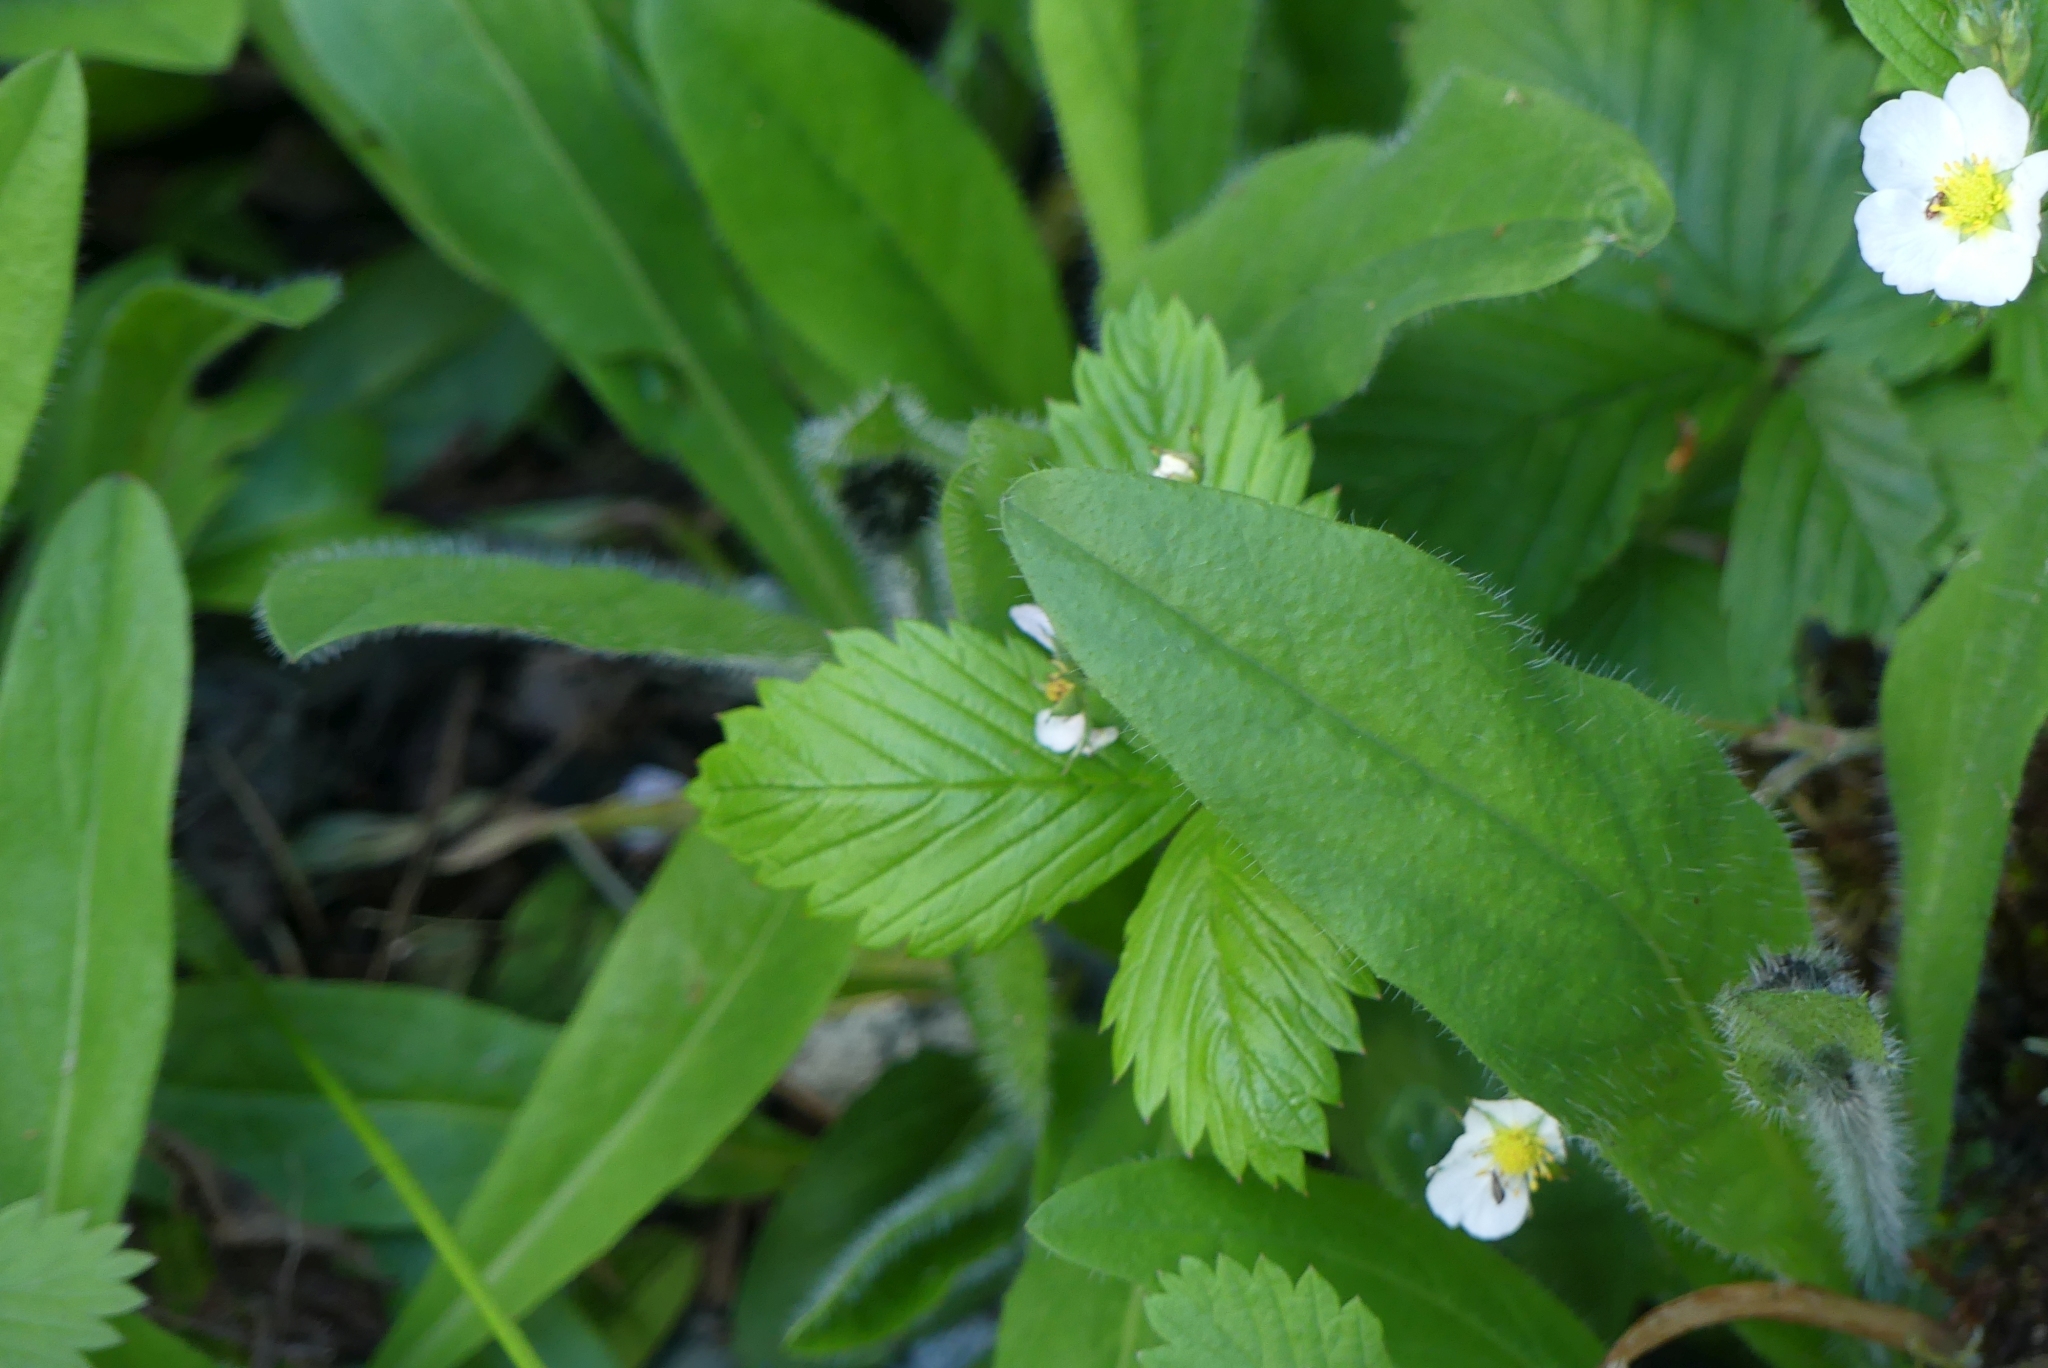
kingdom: Plantae
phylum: Tracheophyta
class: Magnoliopsida
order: Rosales
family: Rosaceae
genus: Fragaria
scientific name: Fragaria vesca
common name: Wild strawberry
